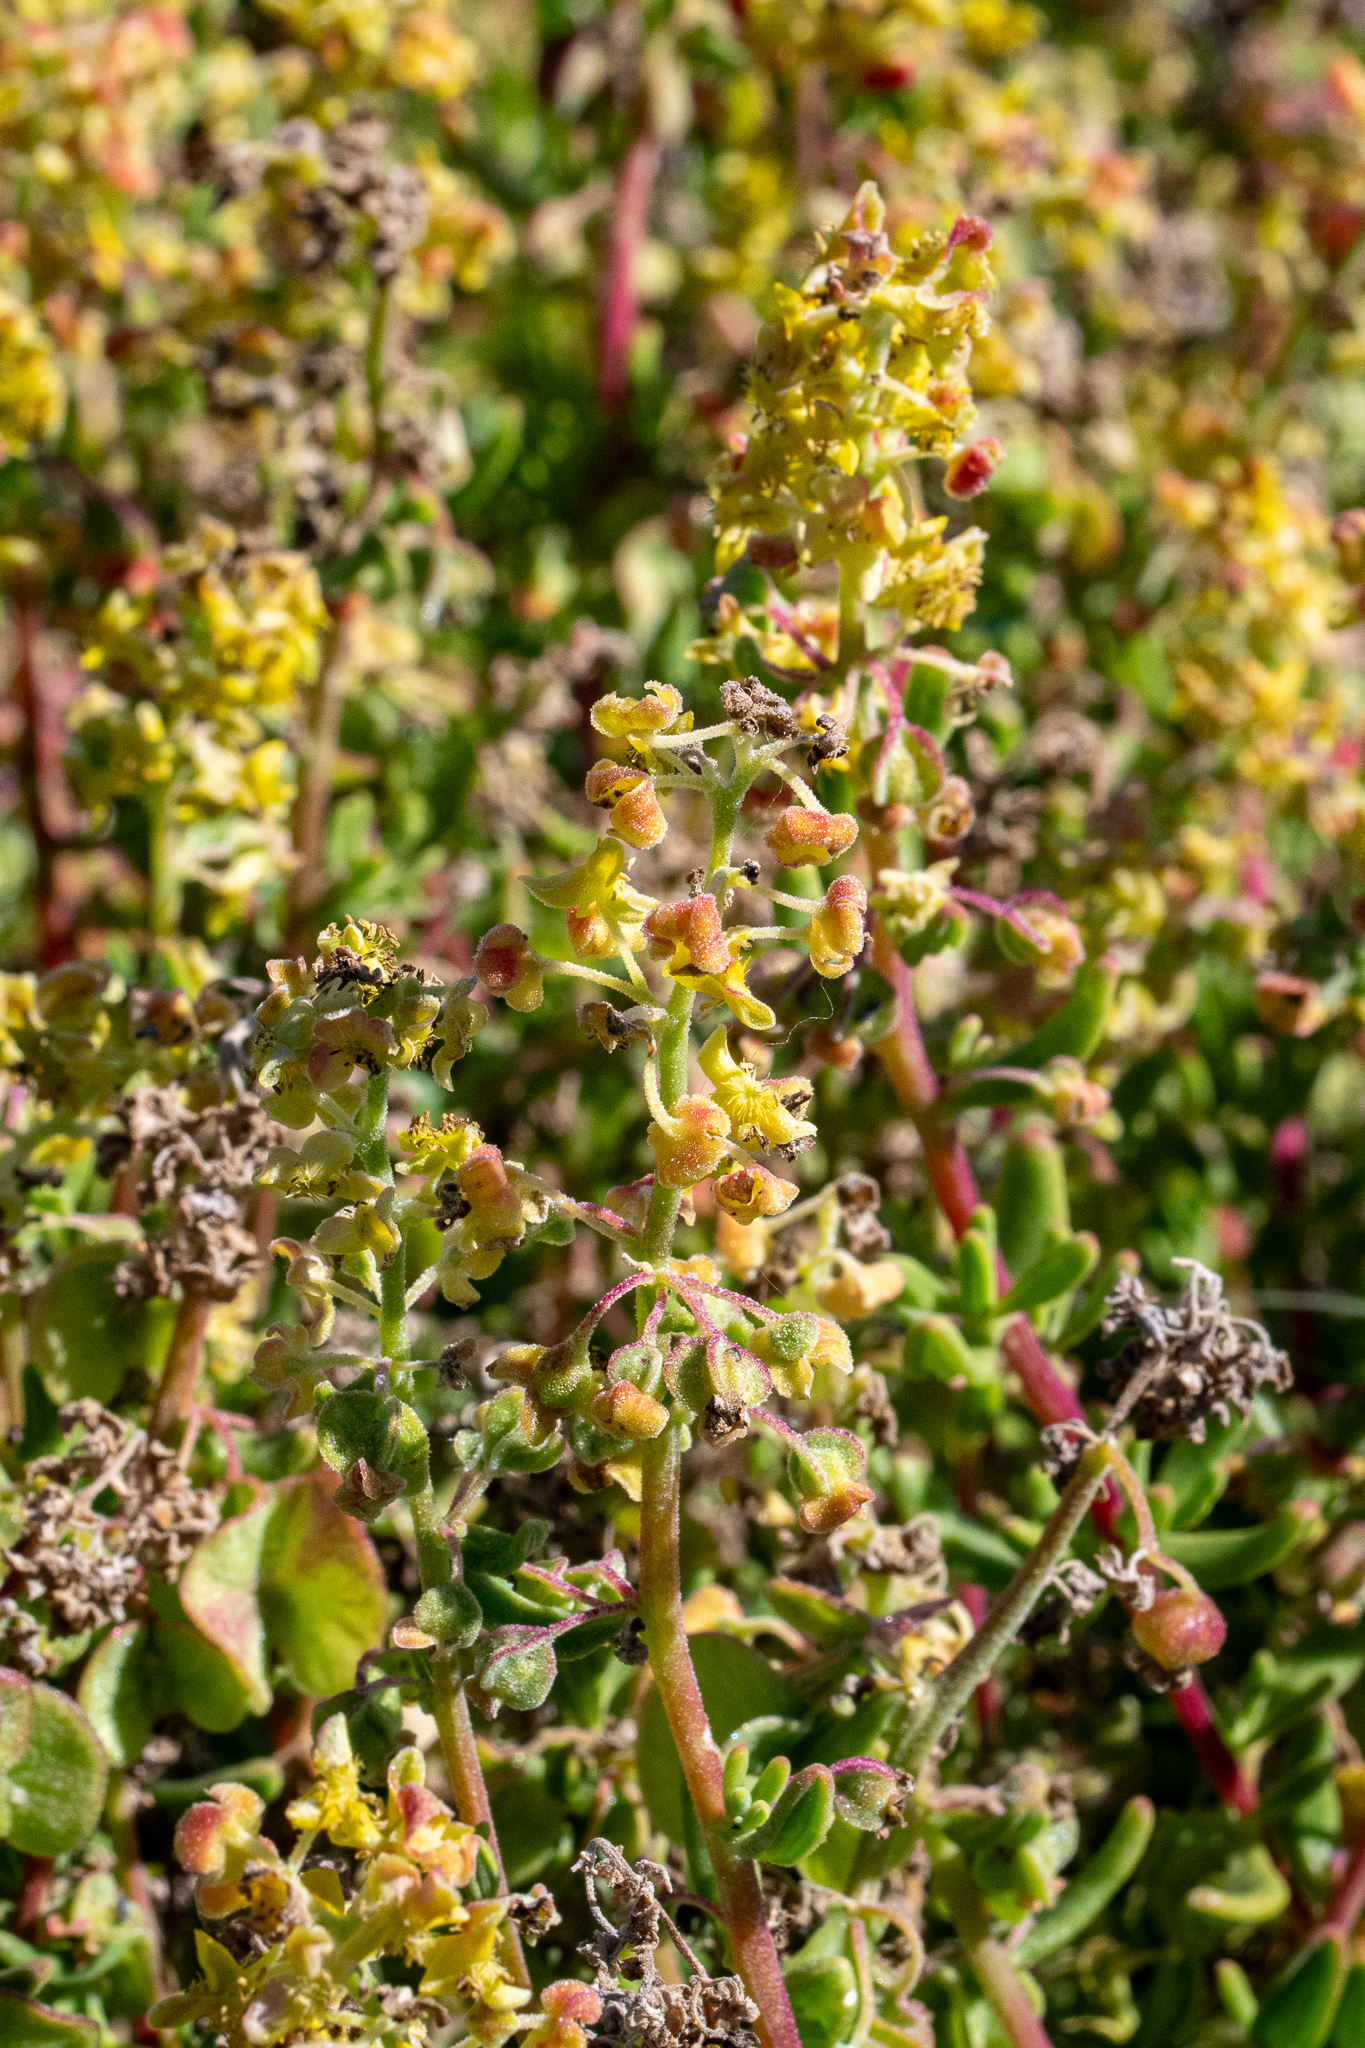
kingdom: Plantae
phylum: Tracheophyta
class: Magnoliopsida
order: Caryophyllales
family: Aizoaceae
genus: Tetragonia
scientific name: Tetragonia fruticosa
